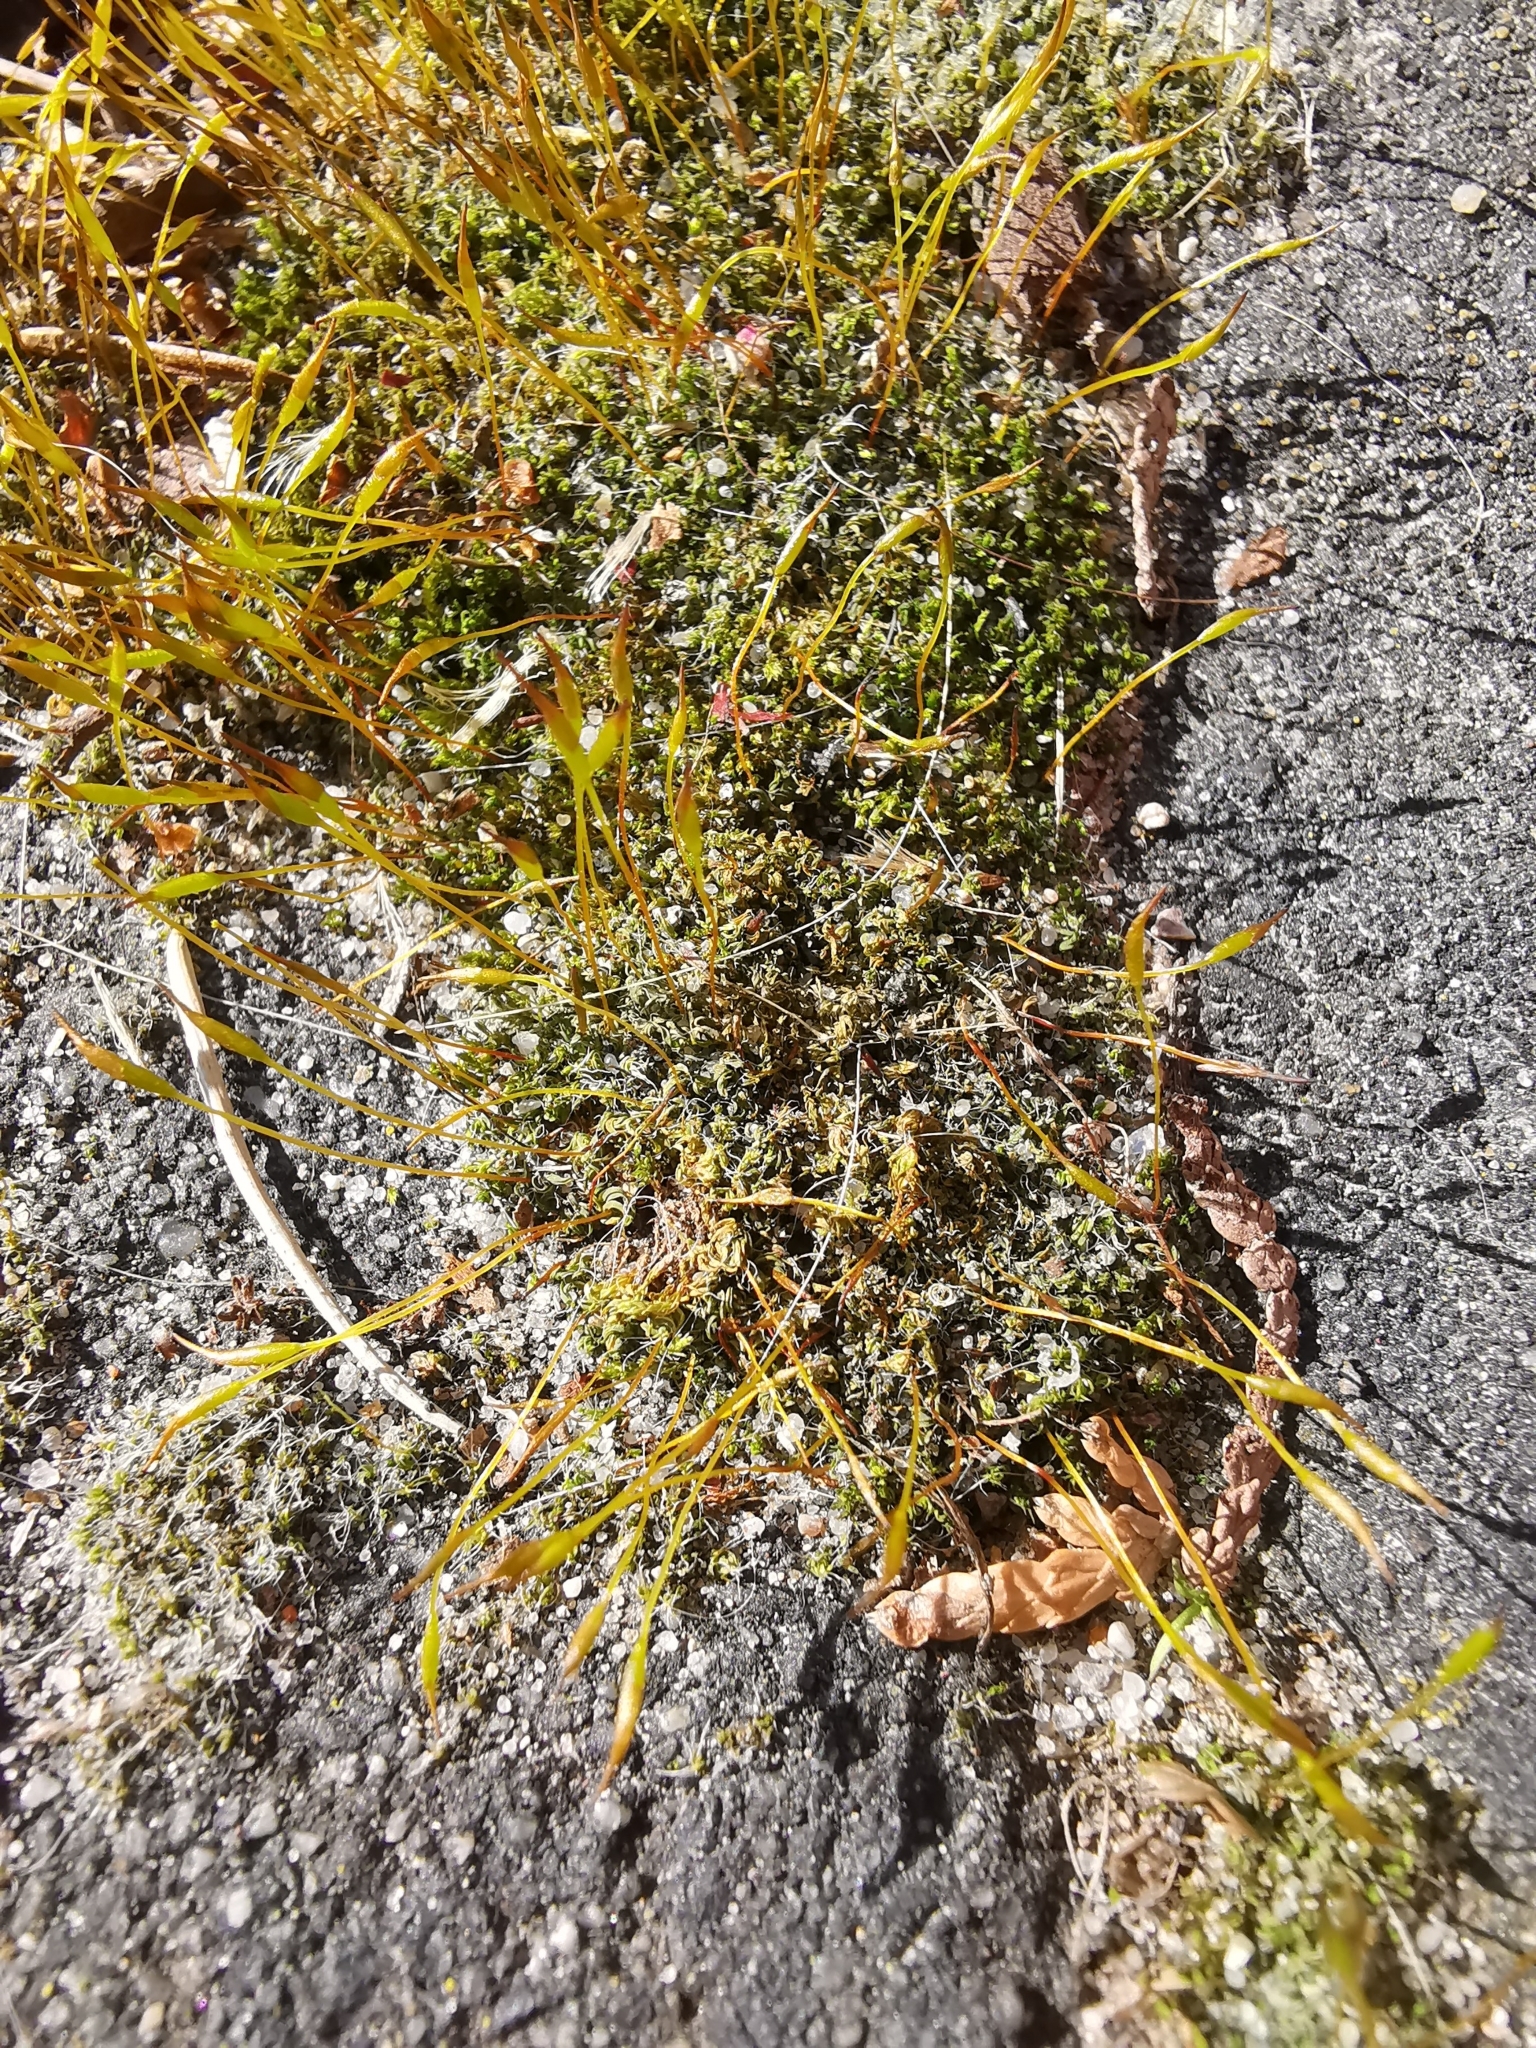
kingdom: Plantae
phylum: Bryophyta
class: Bryopsida
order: Pottiales
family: Pottiaceae
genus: Tortula
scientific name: Tortula muralis
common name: Wall screw-moss
